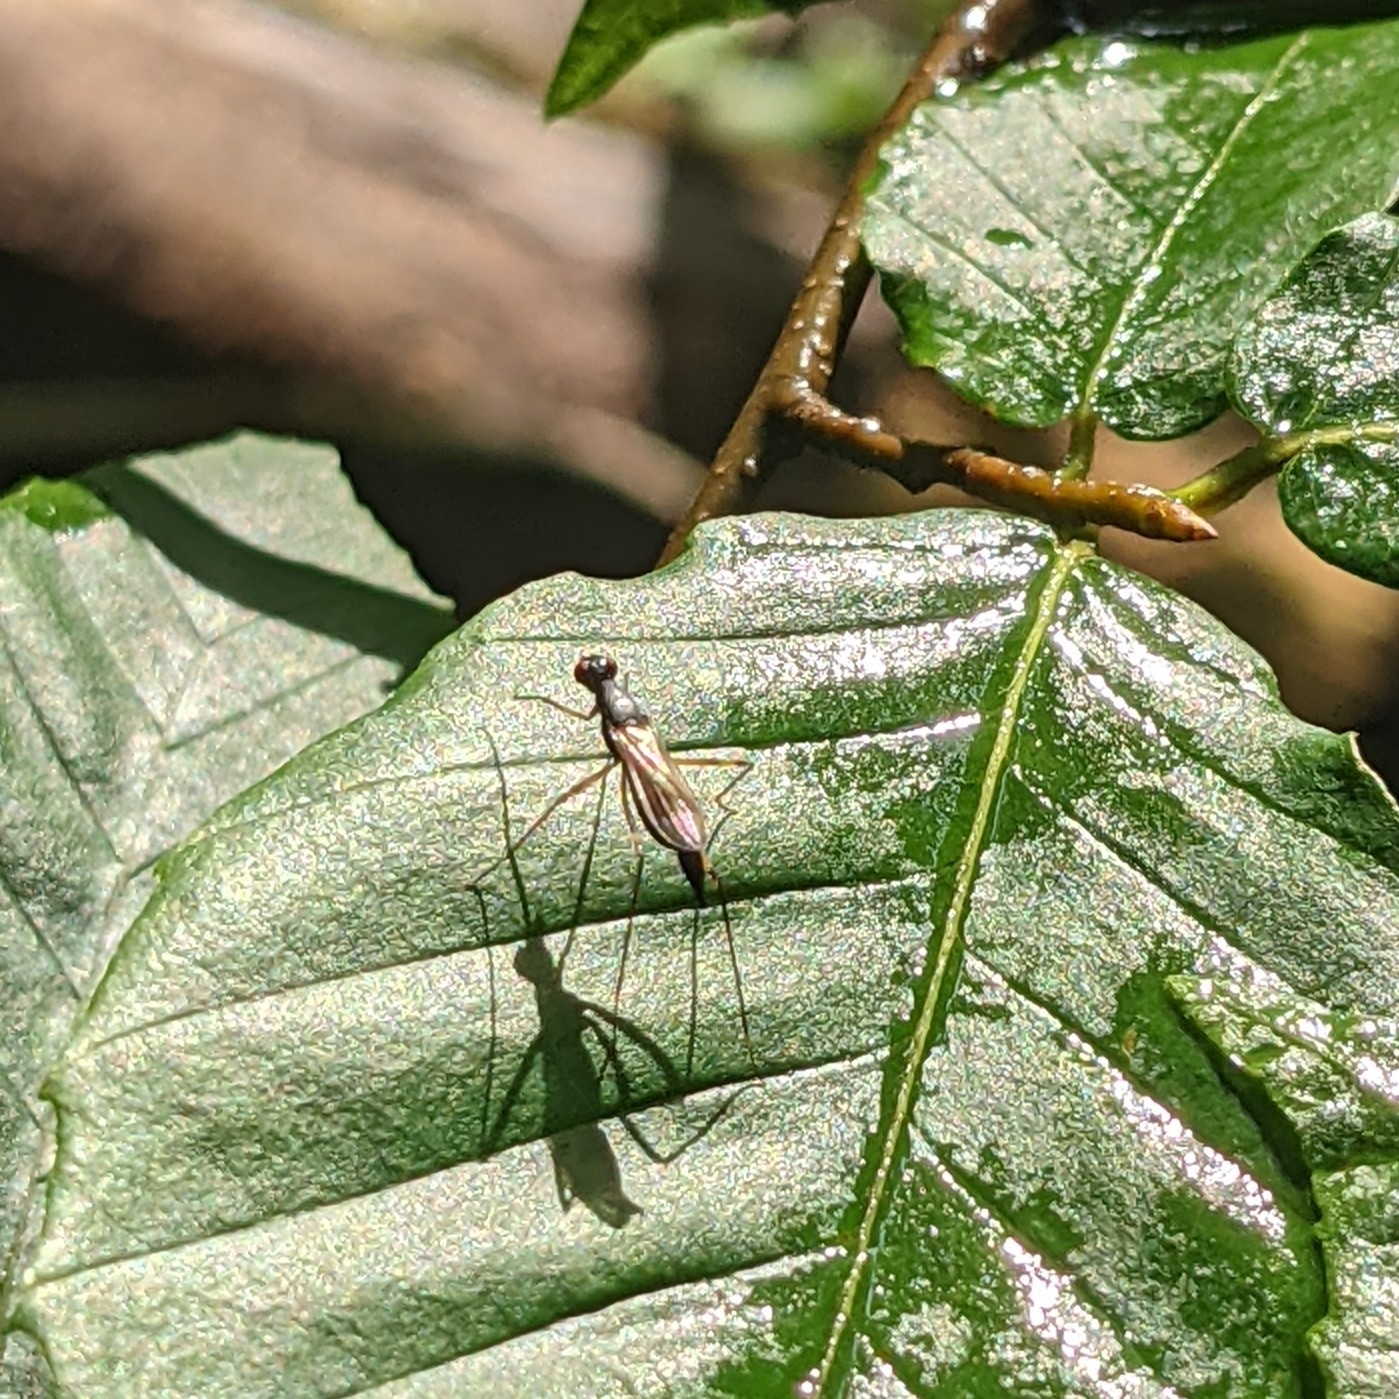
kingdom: Animalia
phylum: Arthropoda
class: Insecta
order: Diptera
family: Micropezidae
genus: Rainieria
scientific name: Rainieria antennaepes
